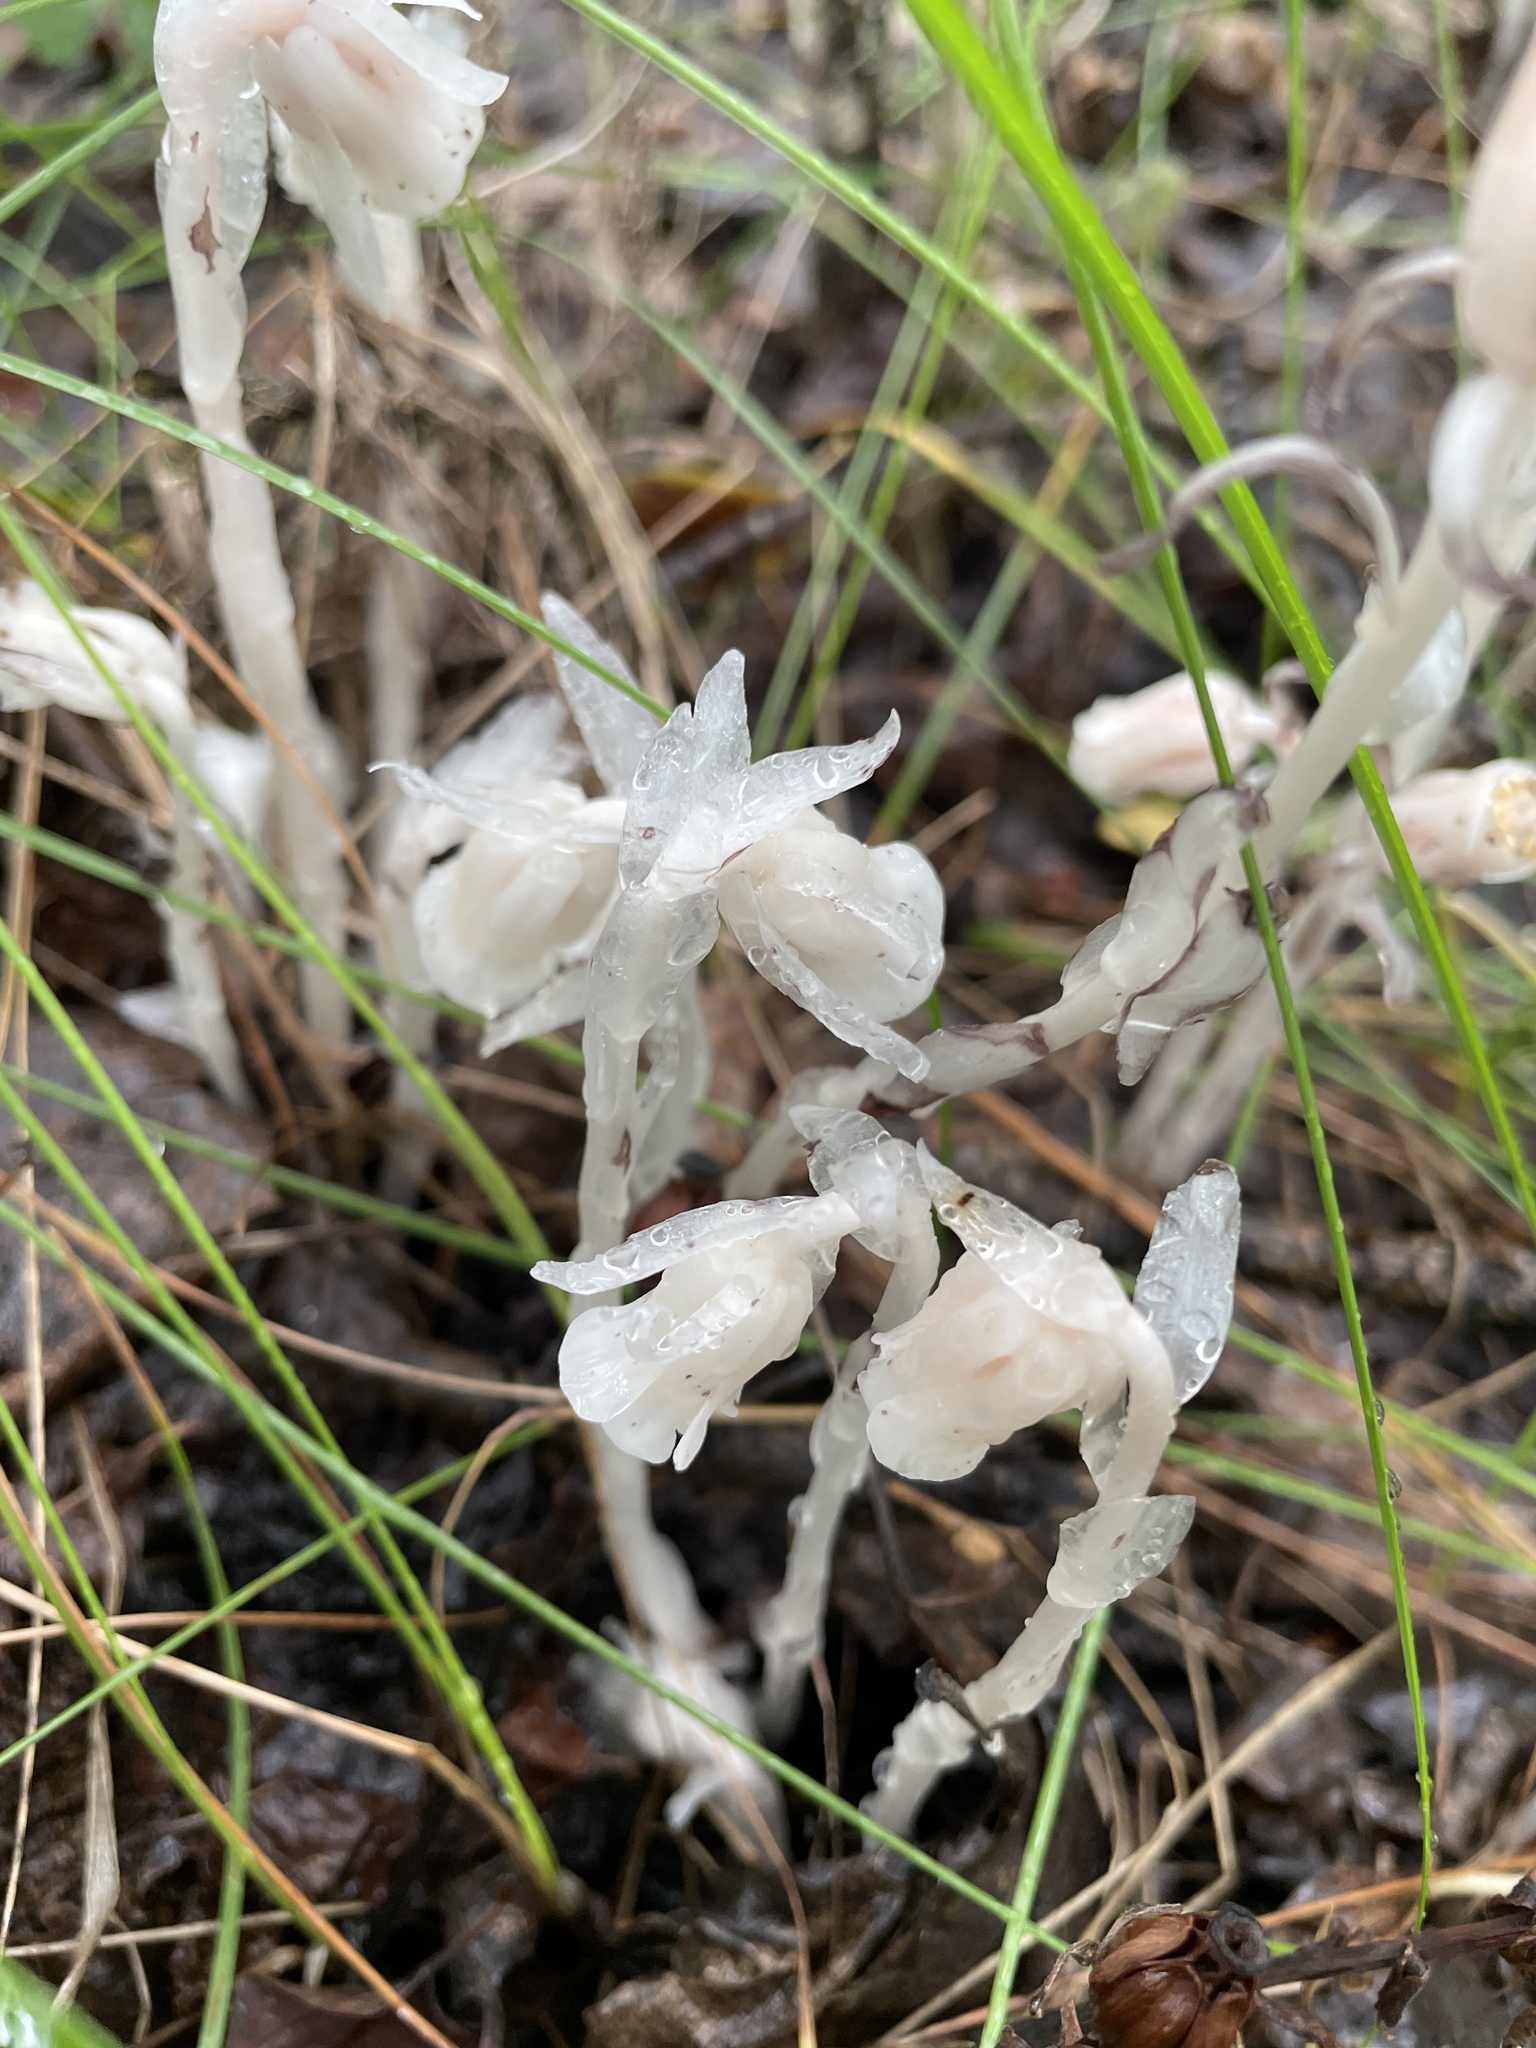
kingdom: Plantae
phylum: Tracheophyta
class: Magnoliopsida
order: Ericales
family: Ericaceae
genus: Monotropa
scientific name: Monotropa uniflora
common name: Convulsion root
